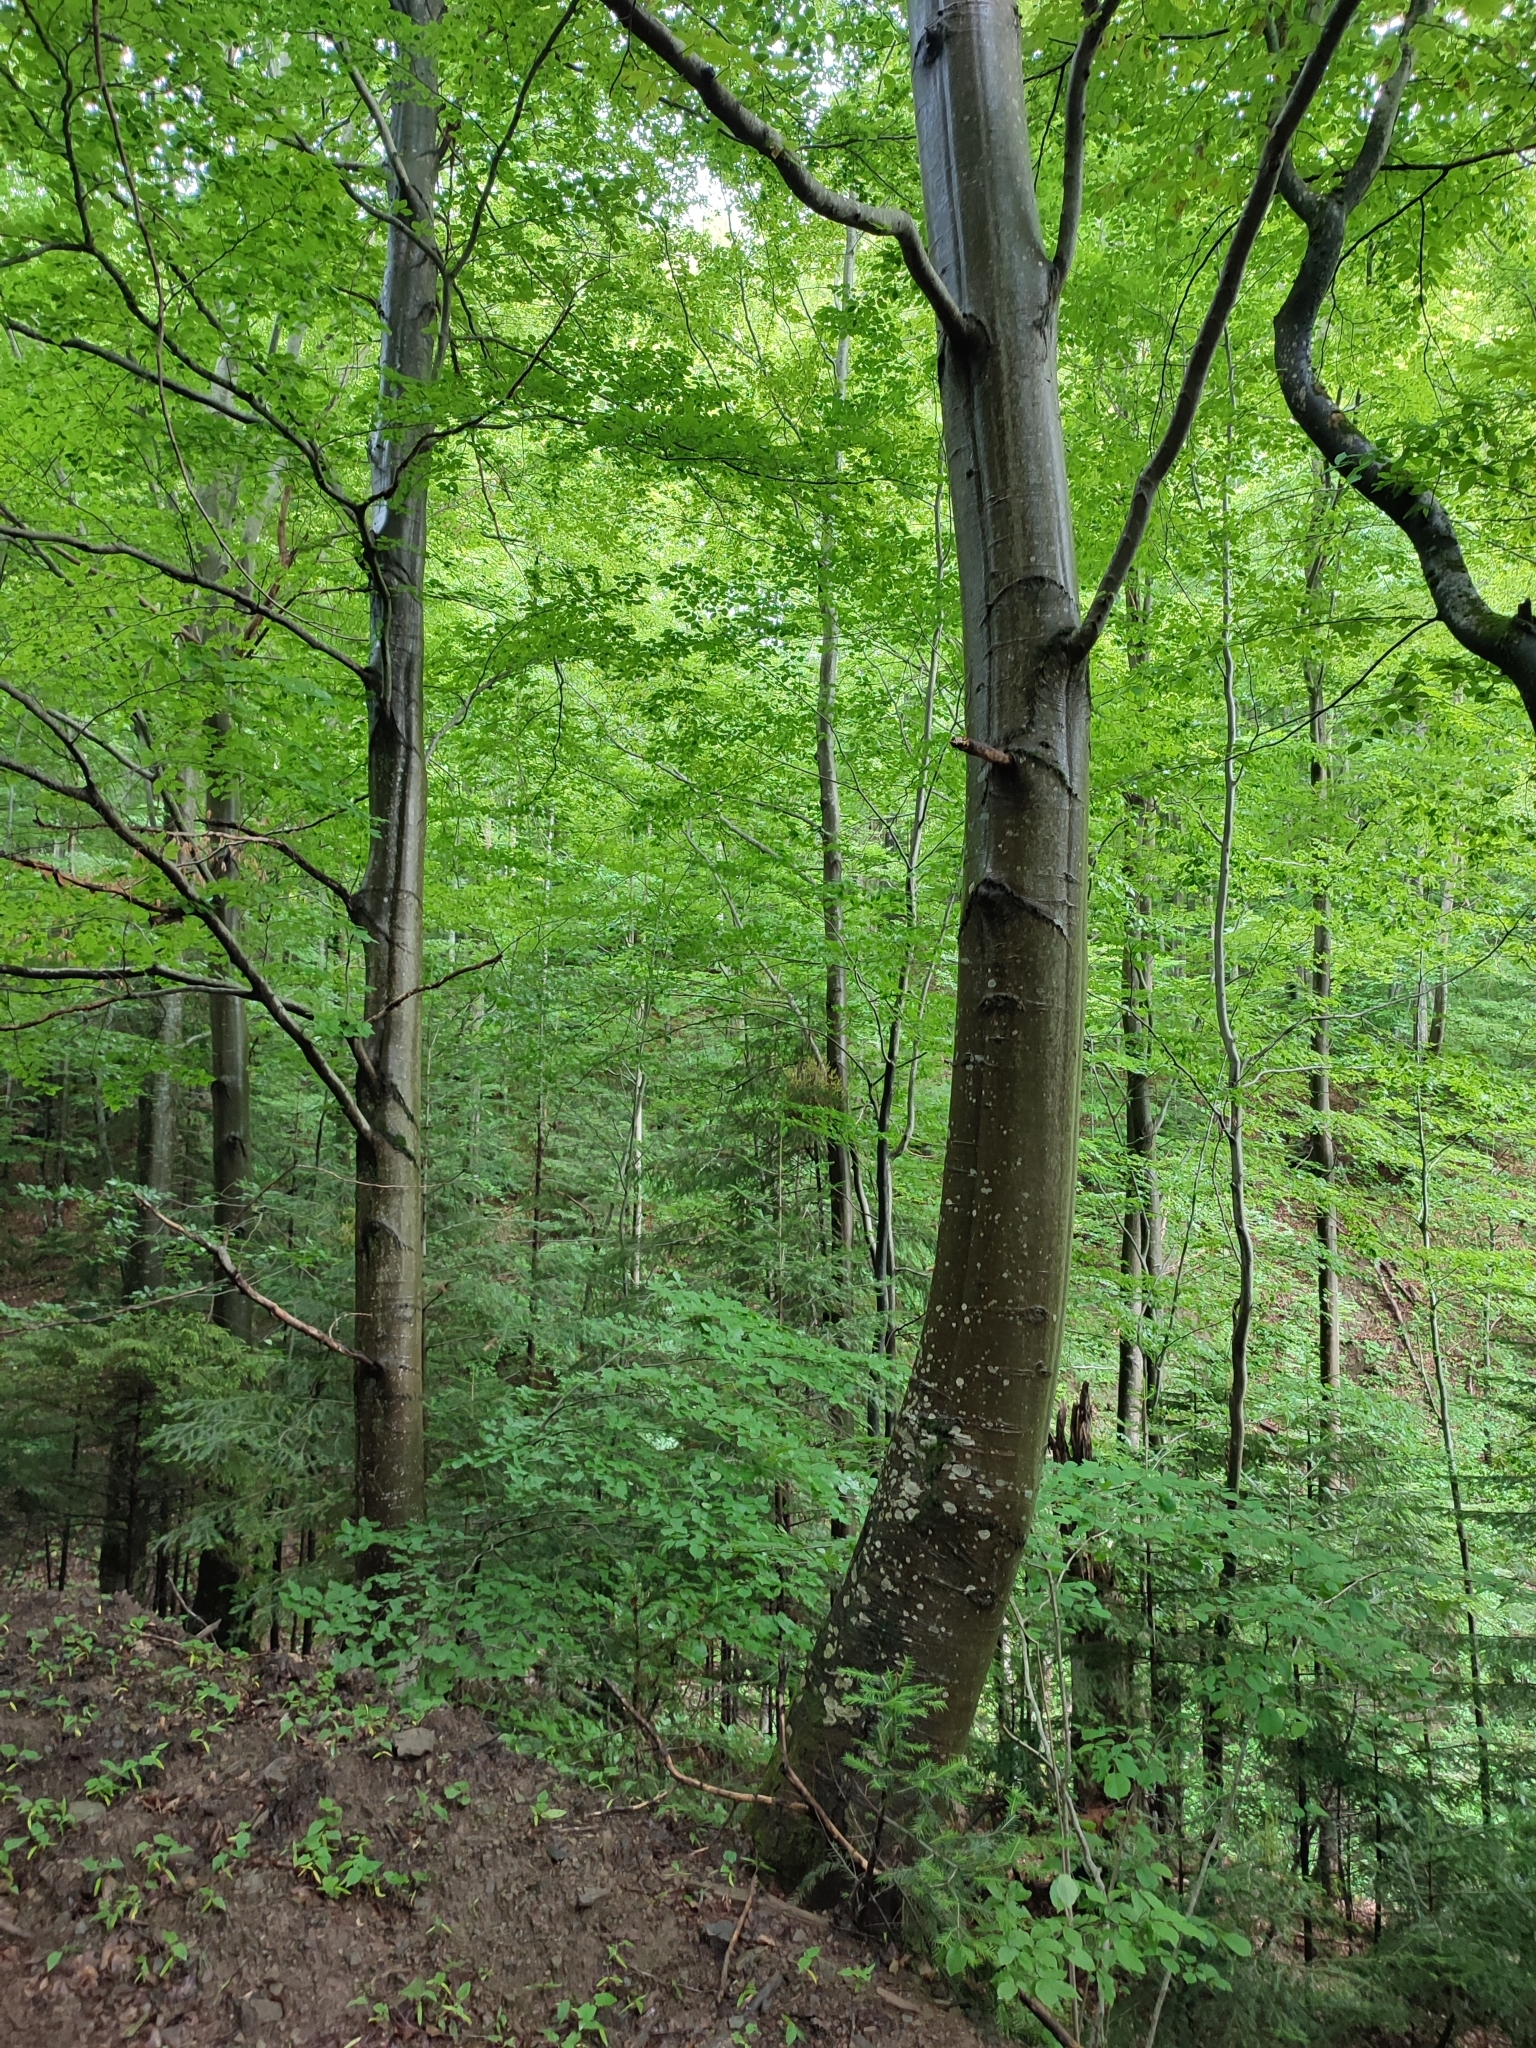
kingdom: Plantae
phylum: Tracheophyta
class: Magnoliopsida
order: Fagales
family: Fagaceae
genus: Fagus
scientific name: Fagus sylvatica
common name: Beech
